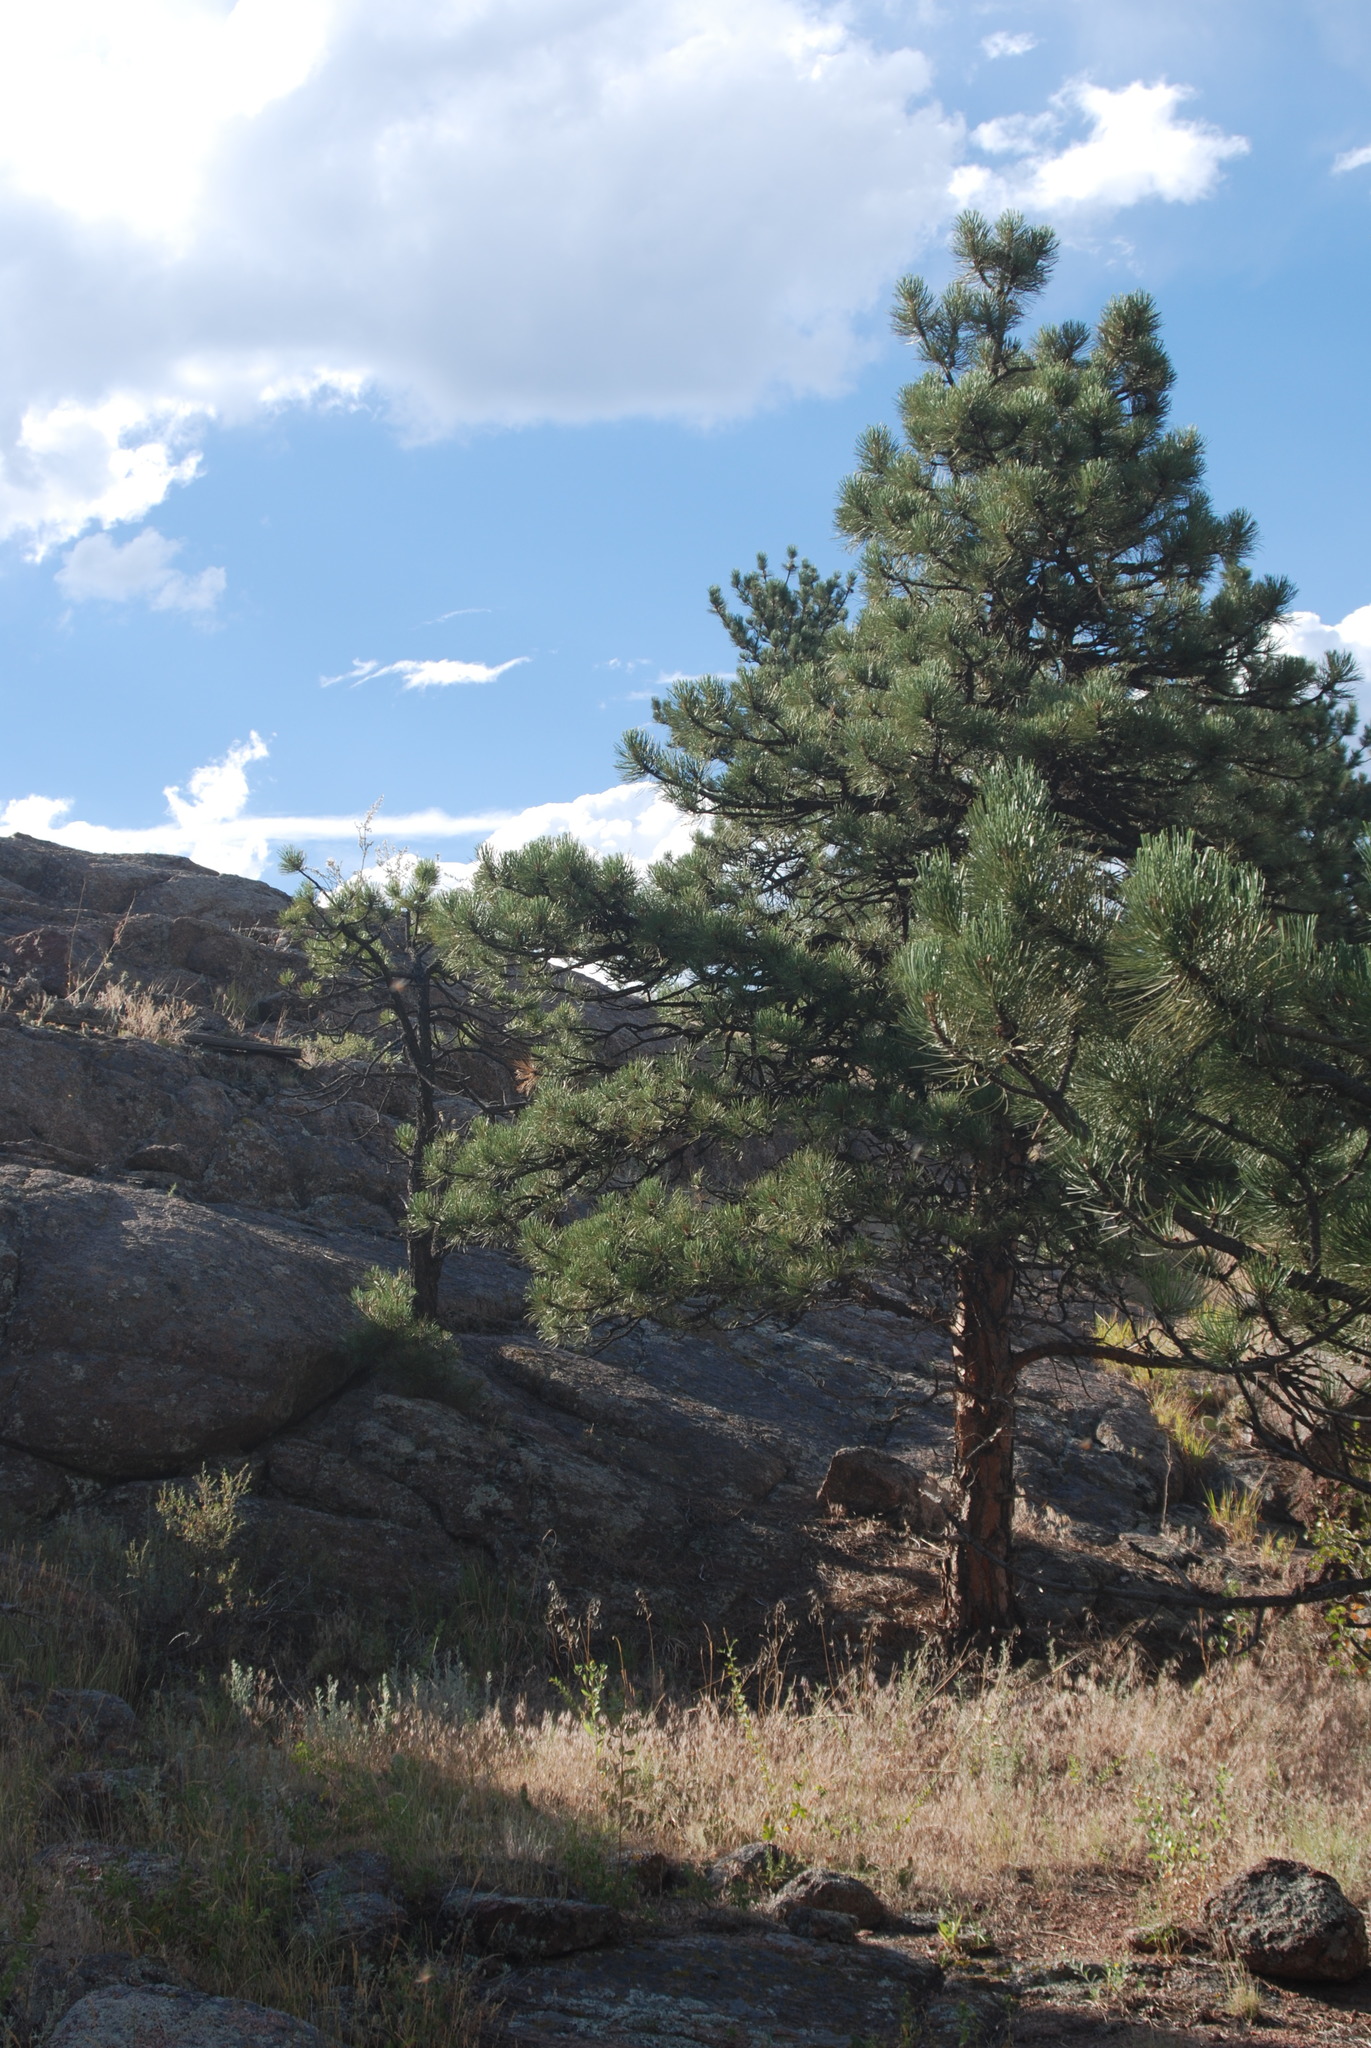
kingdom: Plantae
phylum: Tracheophyta
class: Pinopsida
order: Pinales
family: Pinaceae
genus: Pinus
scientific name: Pinus ponderosa
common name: Western yellow-pine
